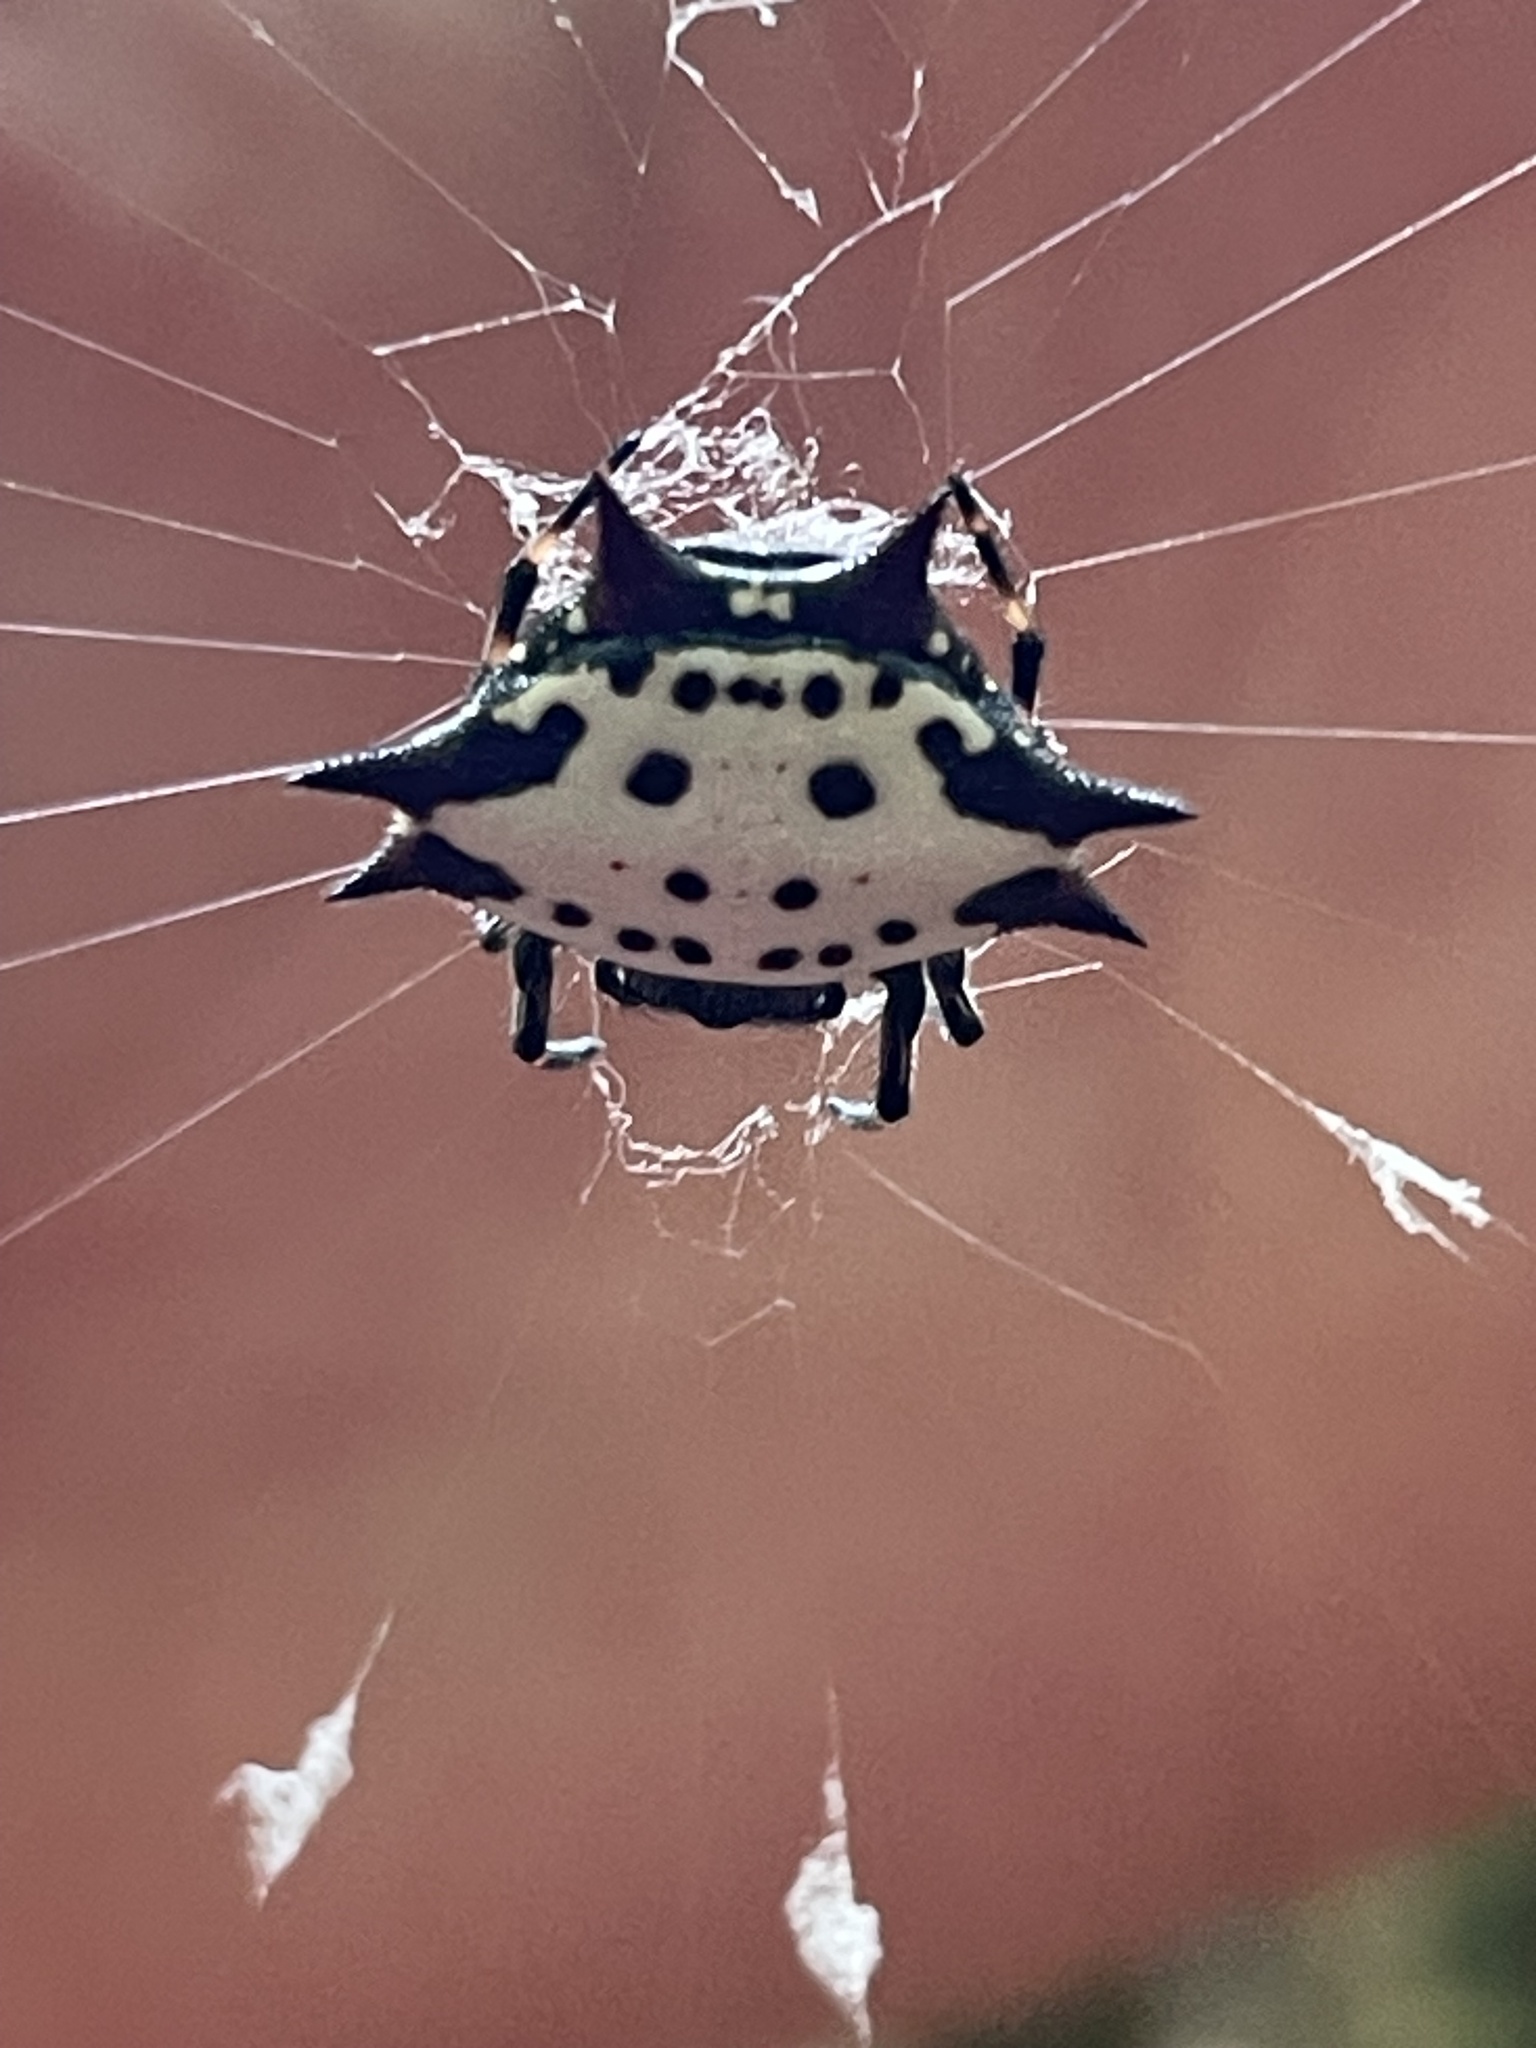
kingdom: Animalia
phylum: Arthropoda
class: Arachnida
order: Araneae
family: Araneidae
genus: Gasteracantha
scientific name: Gasteracantha cancriformis
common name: Orb weavers
